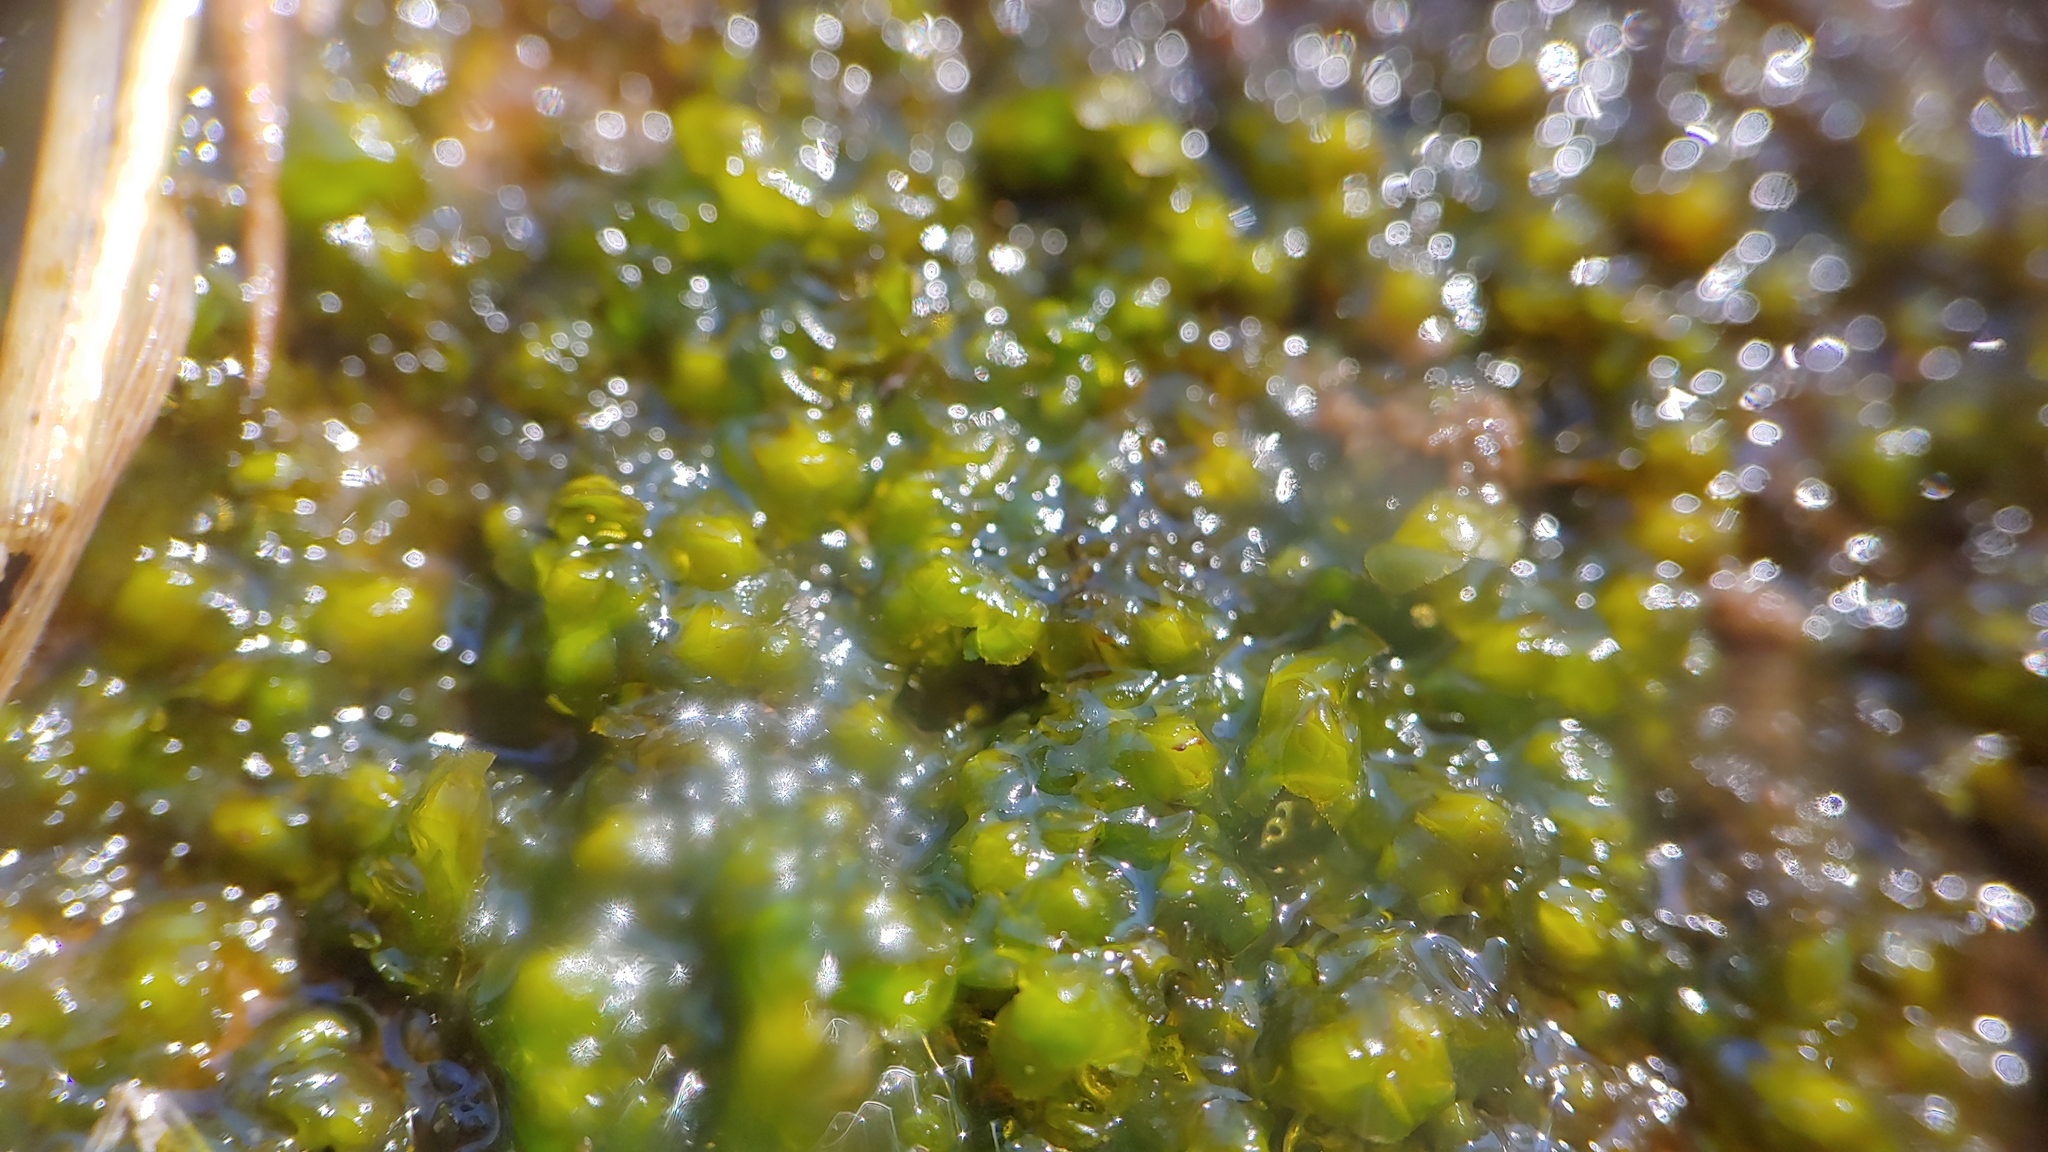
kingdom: Plantae
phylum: Marchantiophyta
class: Jungermanniopsida
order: Jungermanniales
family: Scapaniaceae
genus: Scapania
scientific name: Scapania nemorea
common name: Grove earwort
